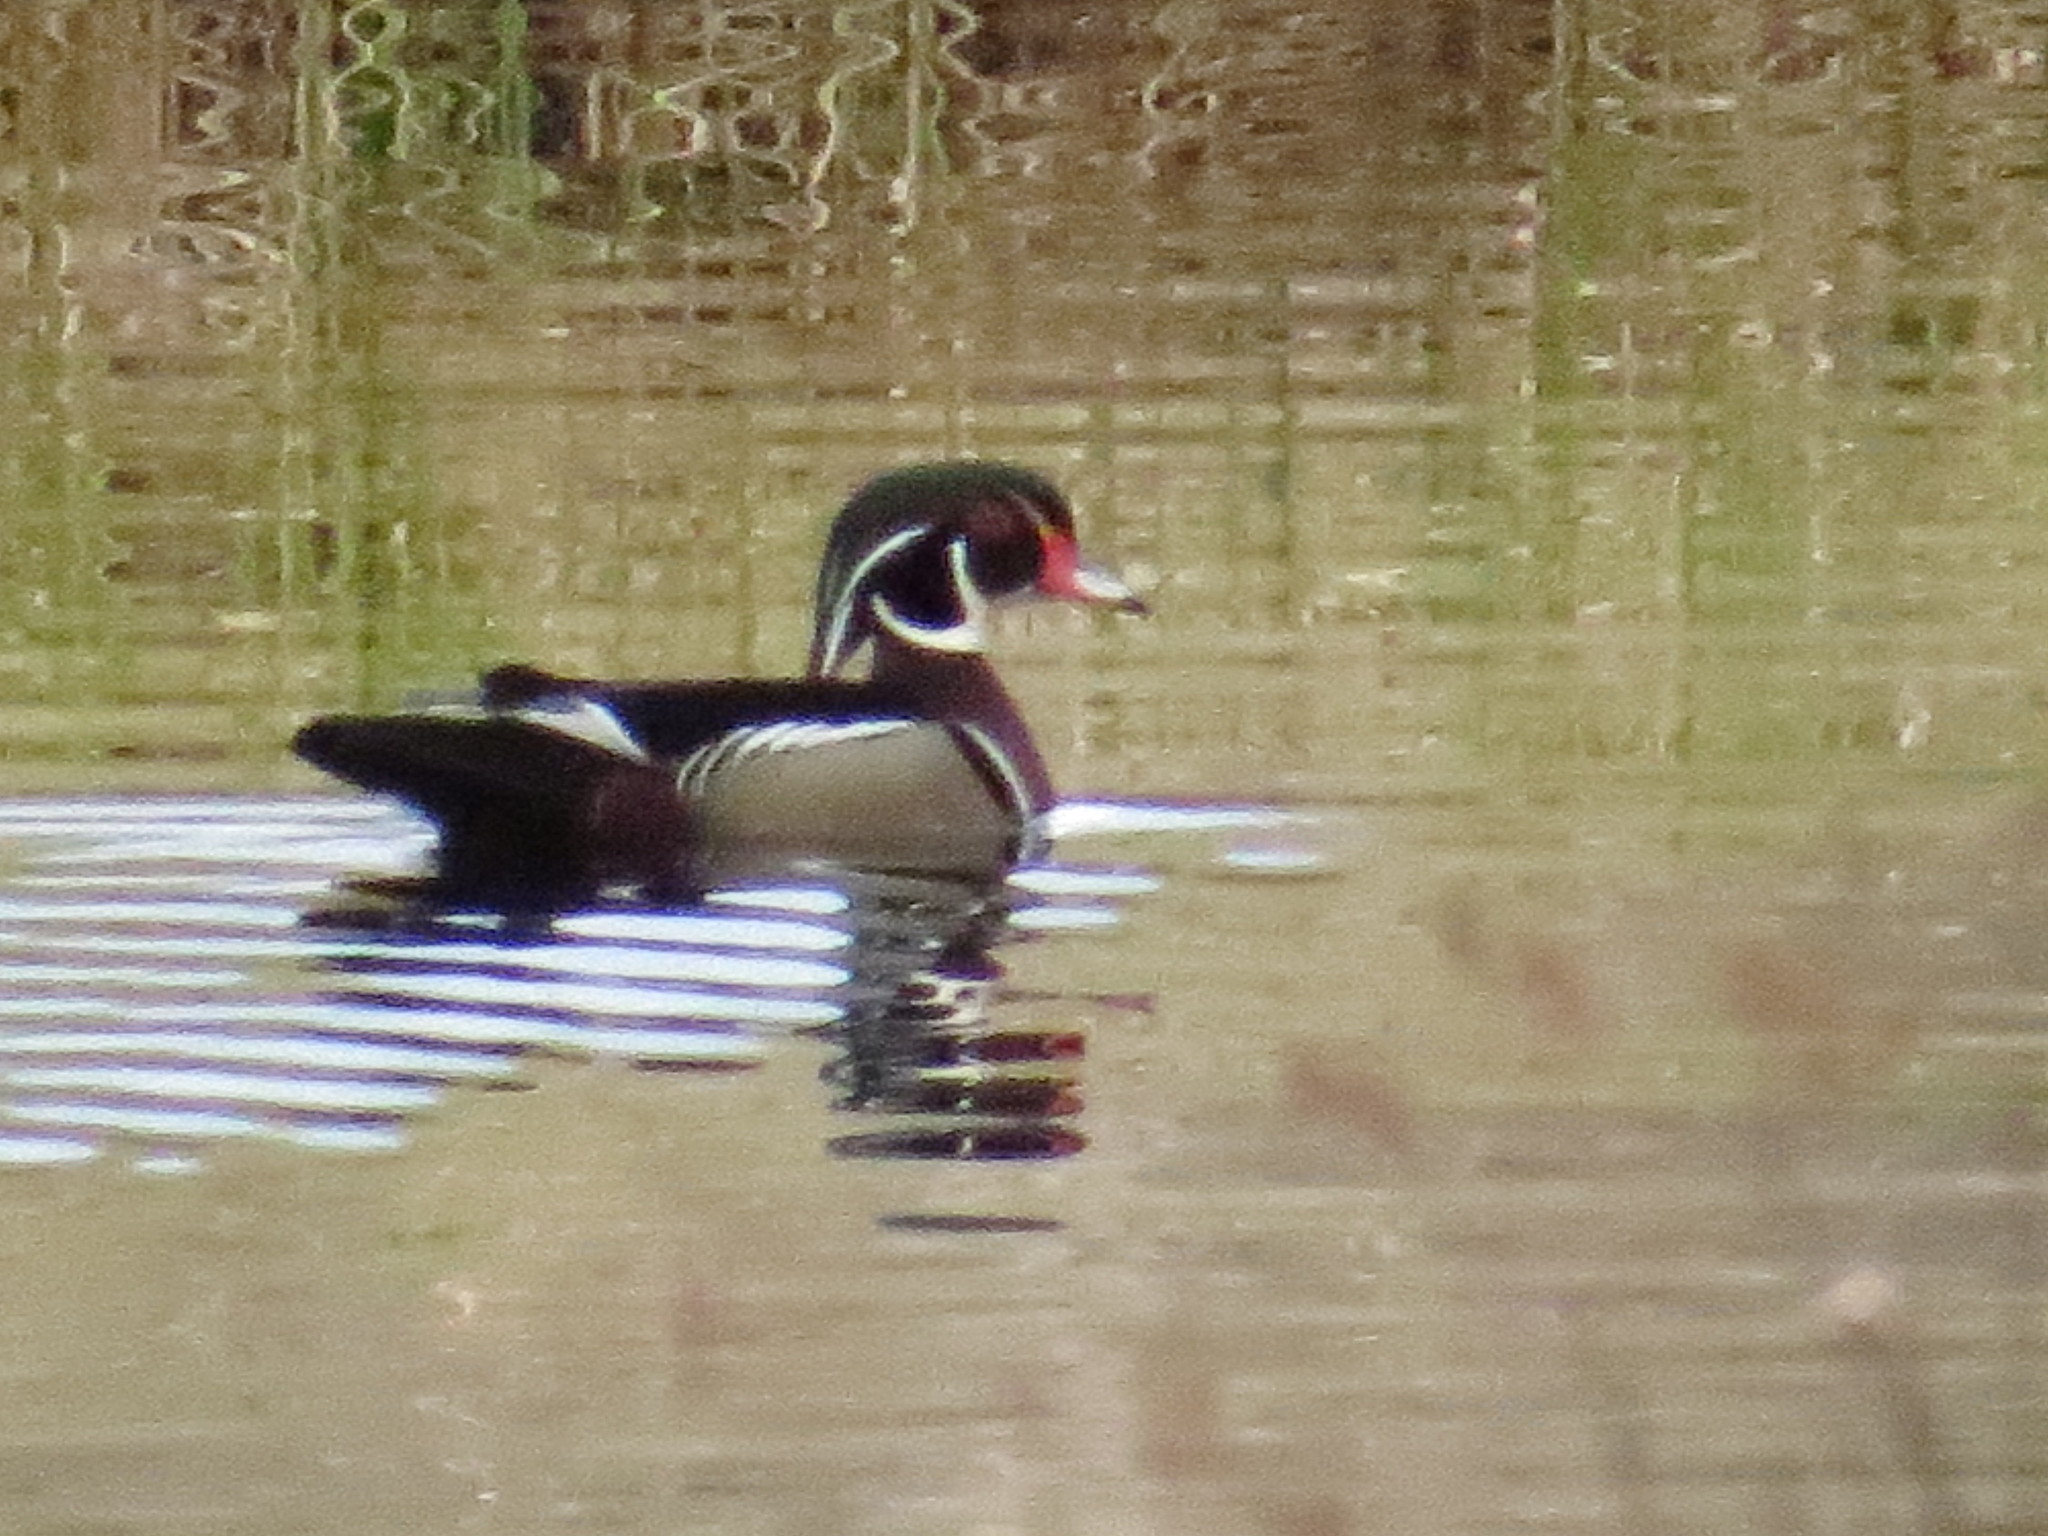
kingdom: Animalia
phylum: Chordata
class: Aves
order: Anseriformes
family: Anatidae
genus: Aix
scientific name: Aix sponsa
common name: Wood duck
